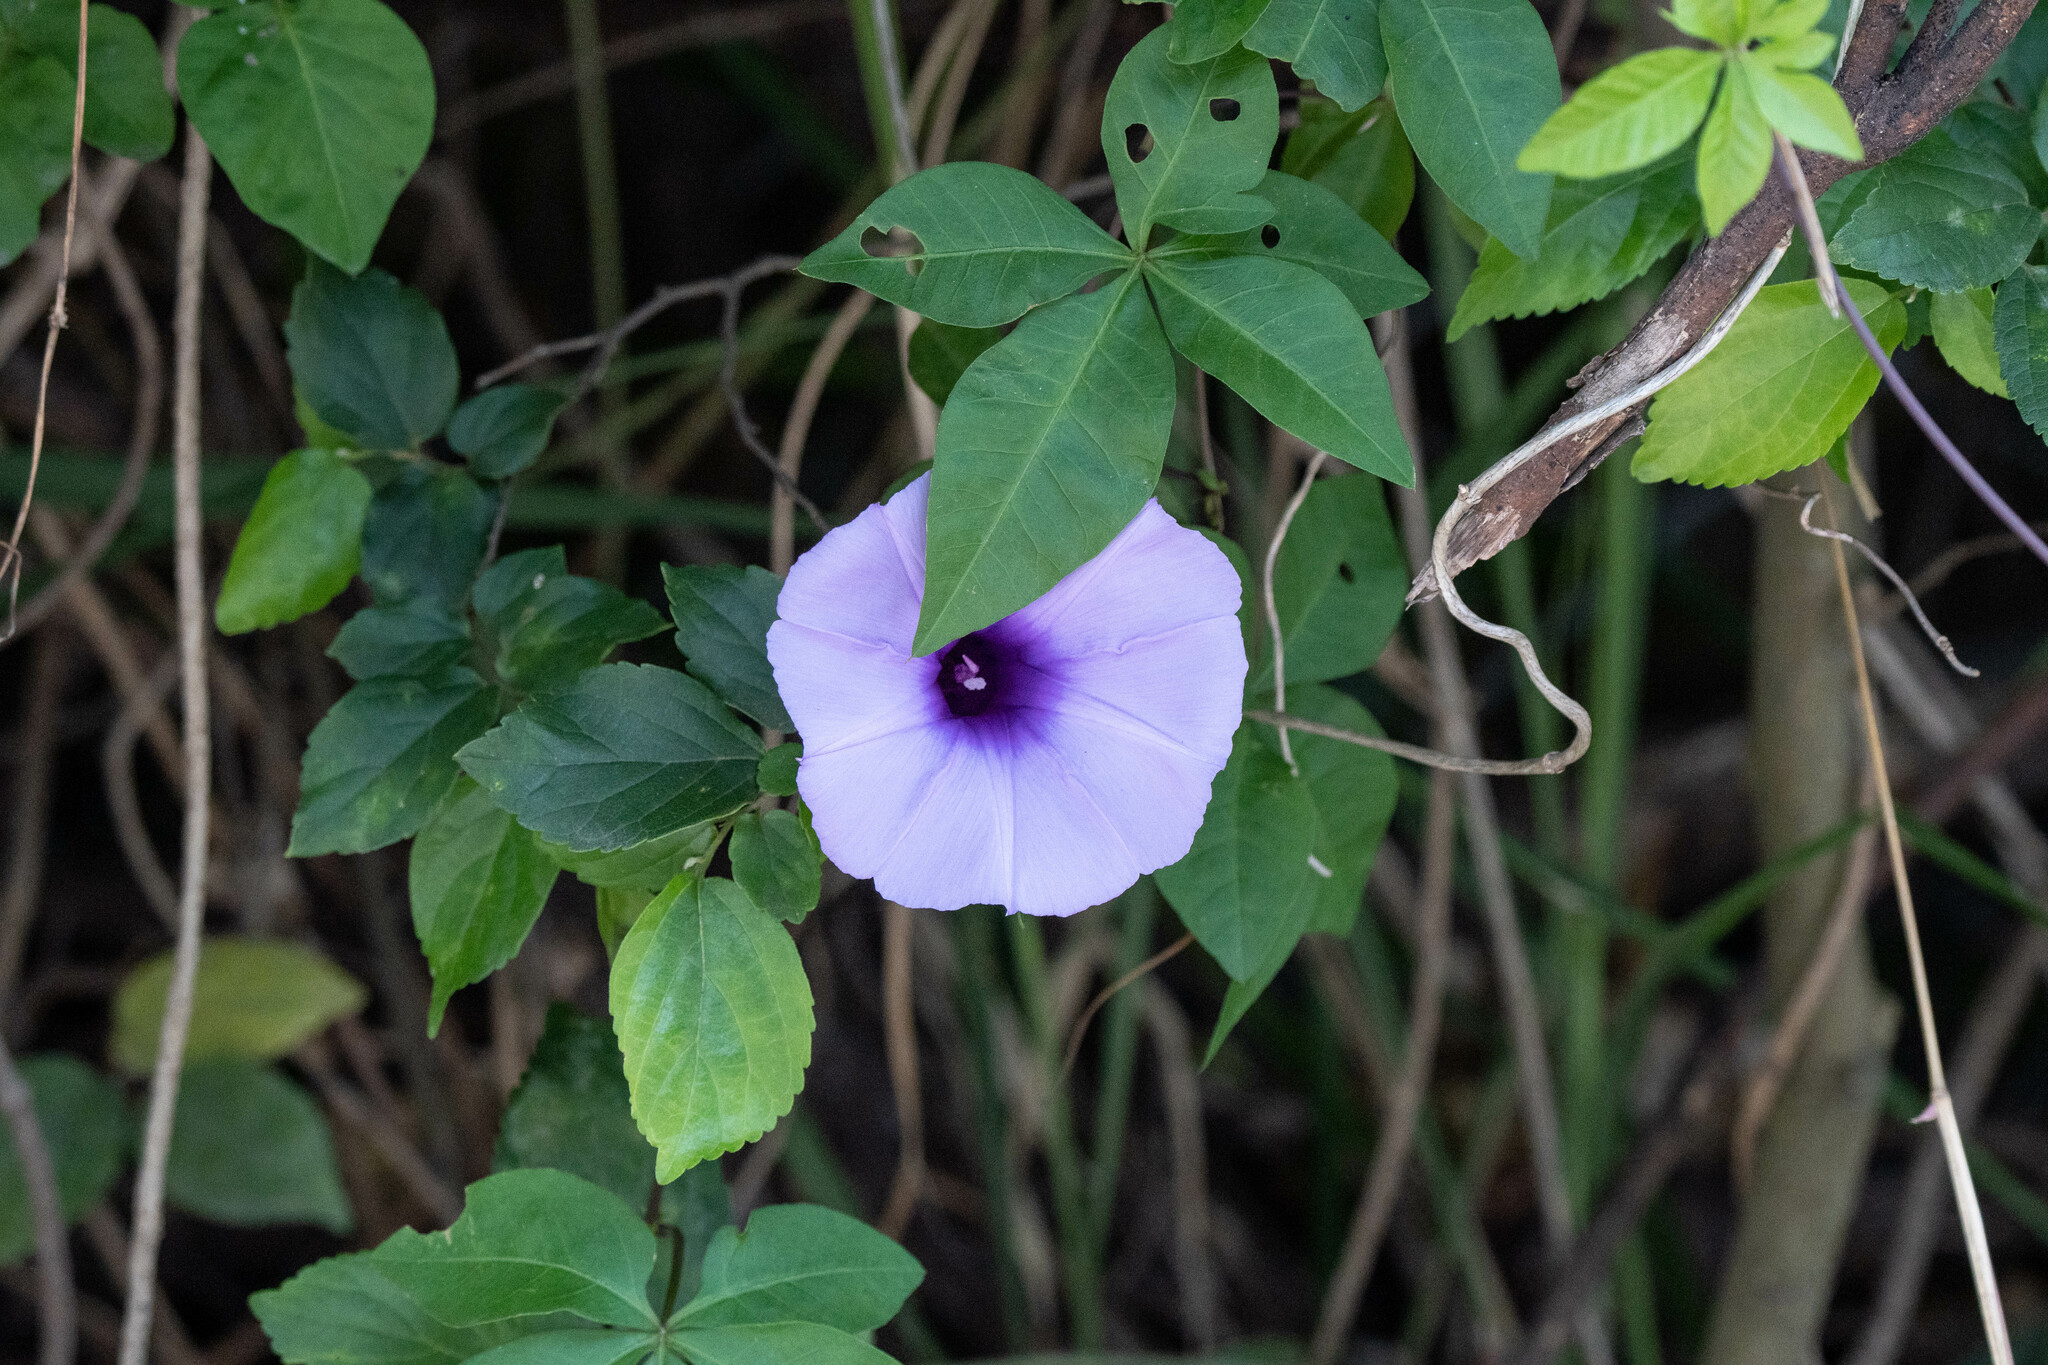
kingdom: Plantae
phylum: Tracheophyta
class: Magnoliopsida
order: Solanales
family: Convolvulaceae
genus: Ipomoea
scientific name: Ipomoea cairica
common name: Mile a minute vine
